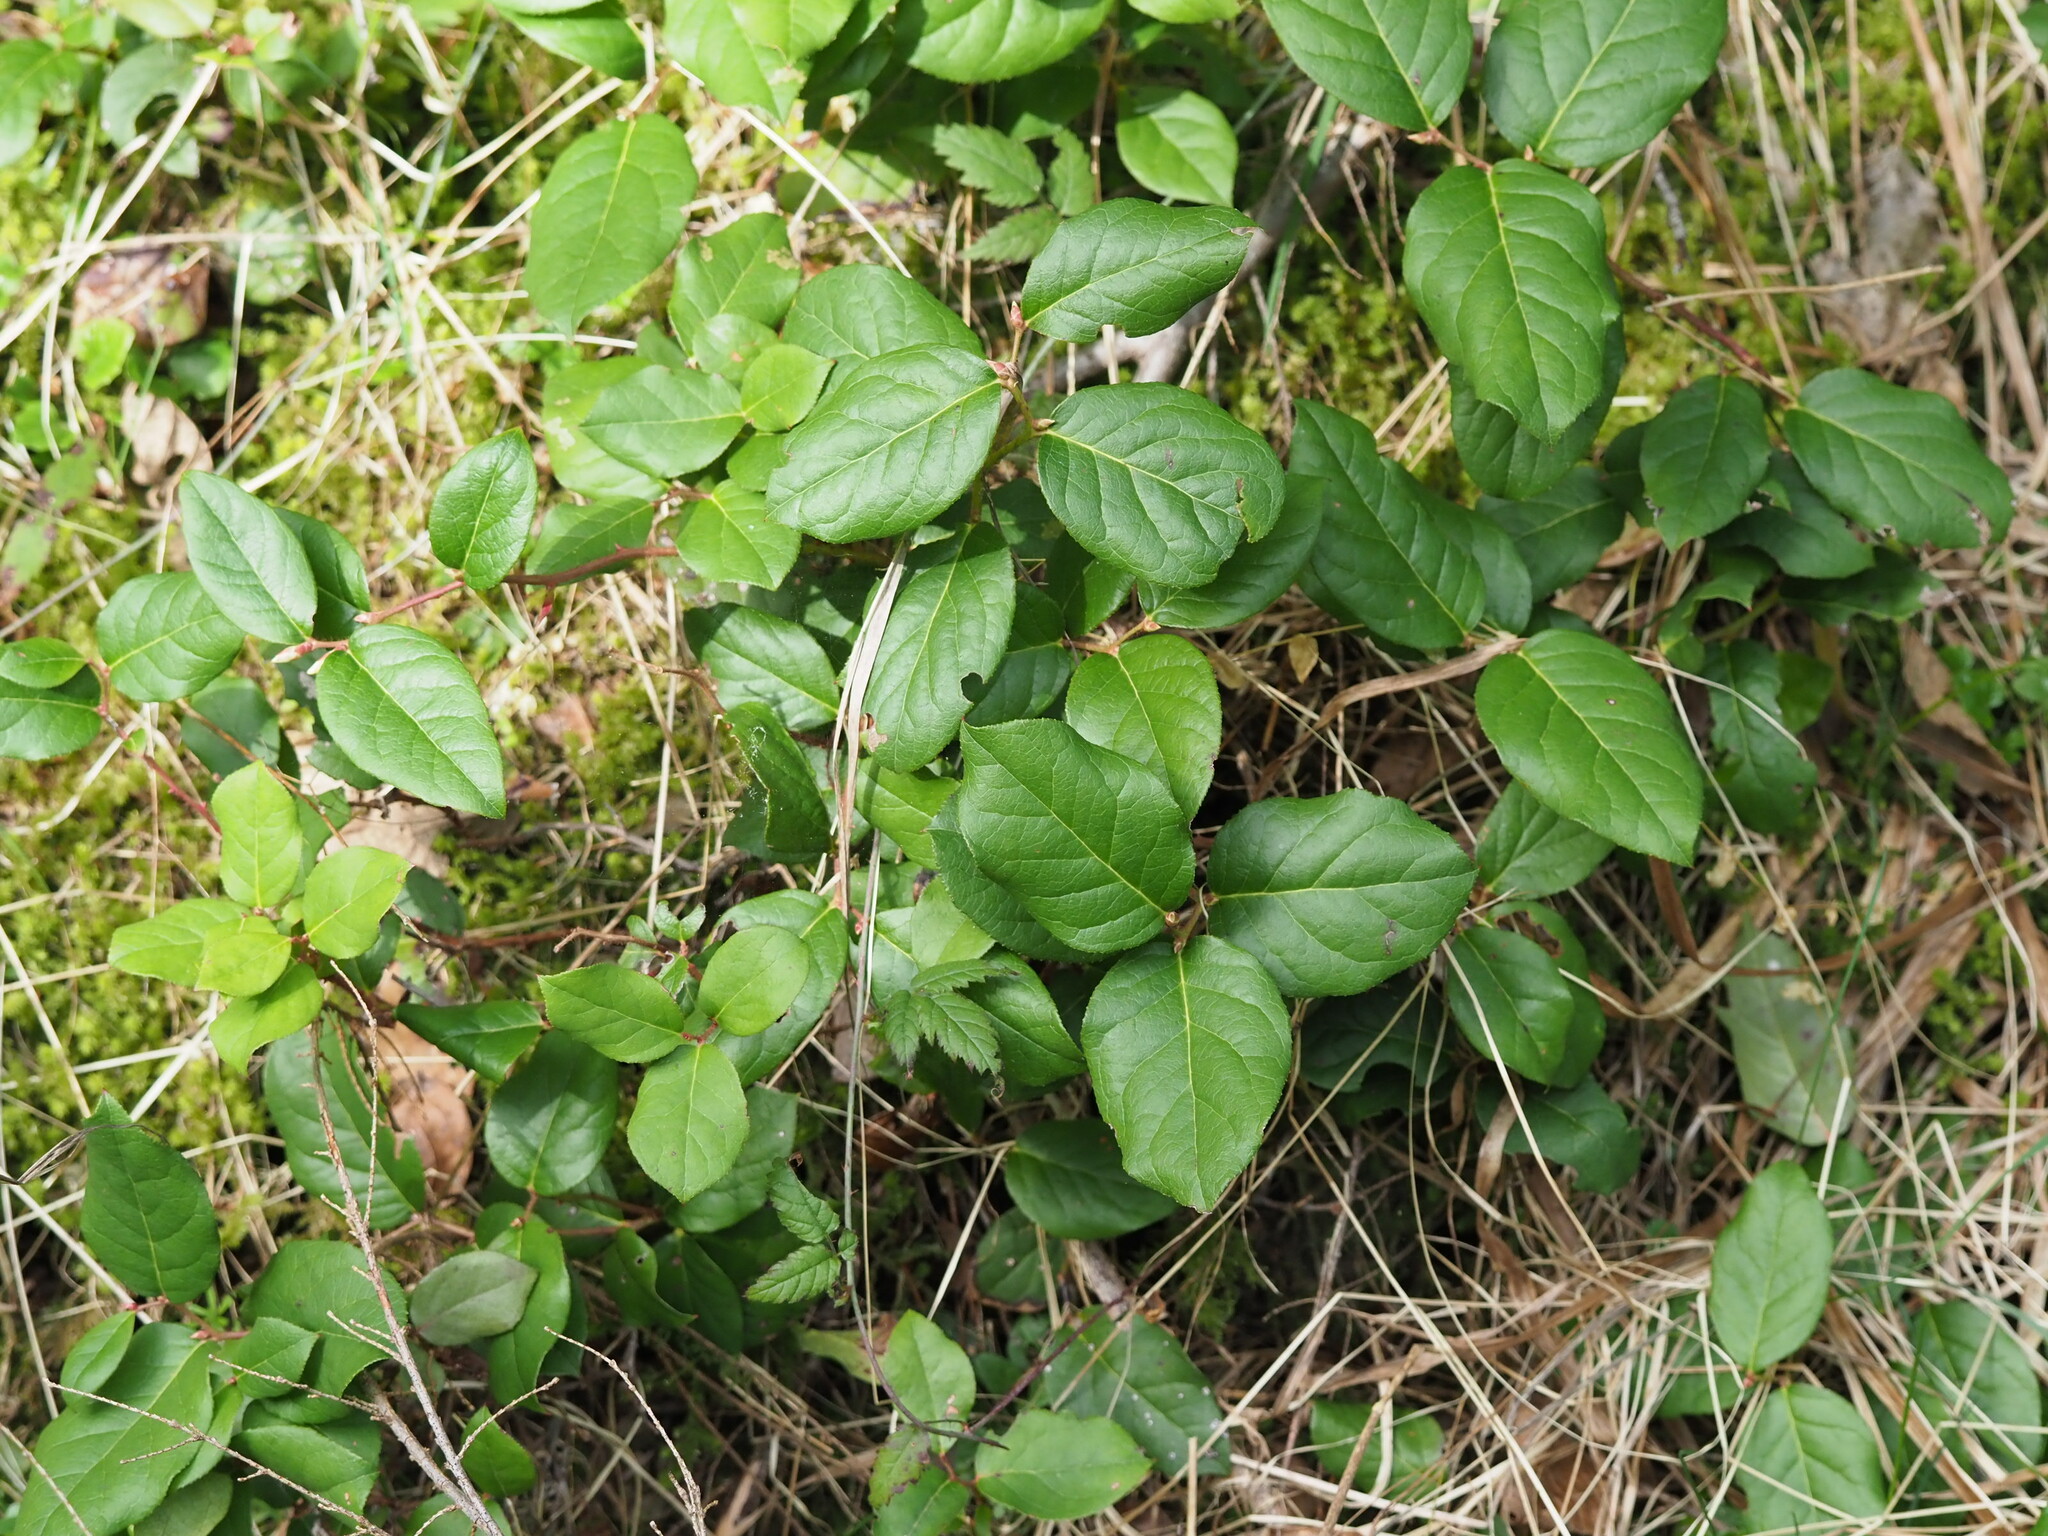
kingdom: Plantae
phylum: Tracheophyta
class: Magnoliopsida
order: Ericales
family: Ericaceae
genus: Gaultheria
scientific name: Gaultheria shallon
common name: Shallon
